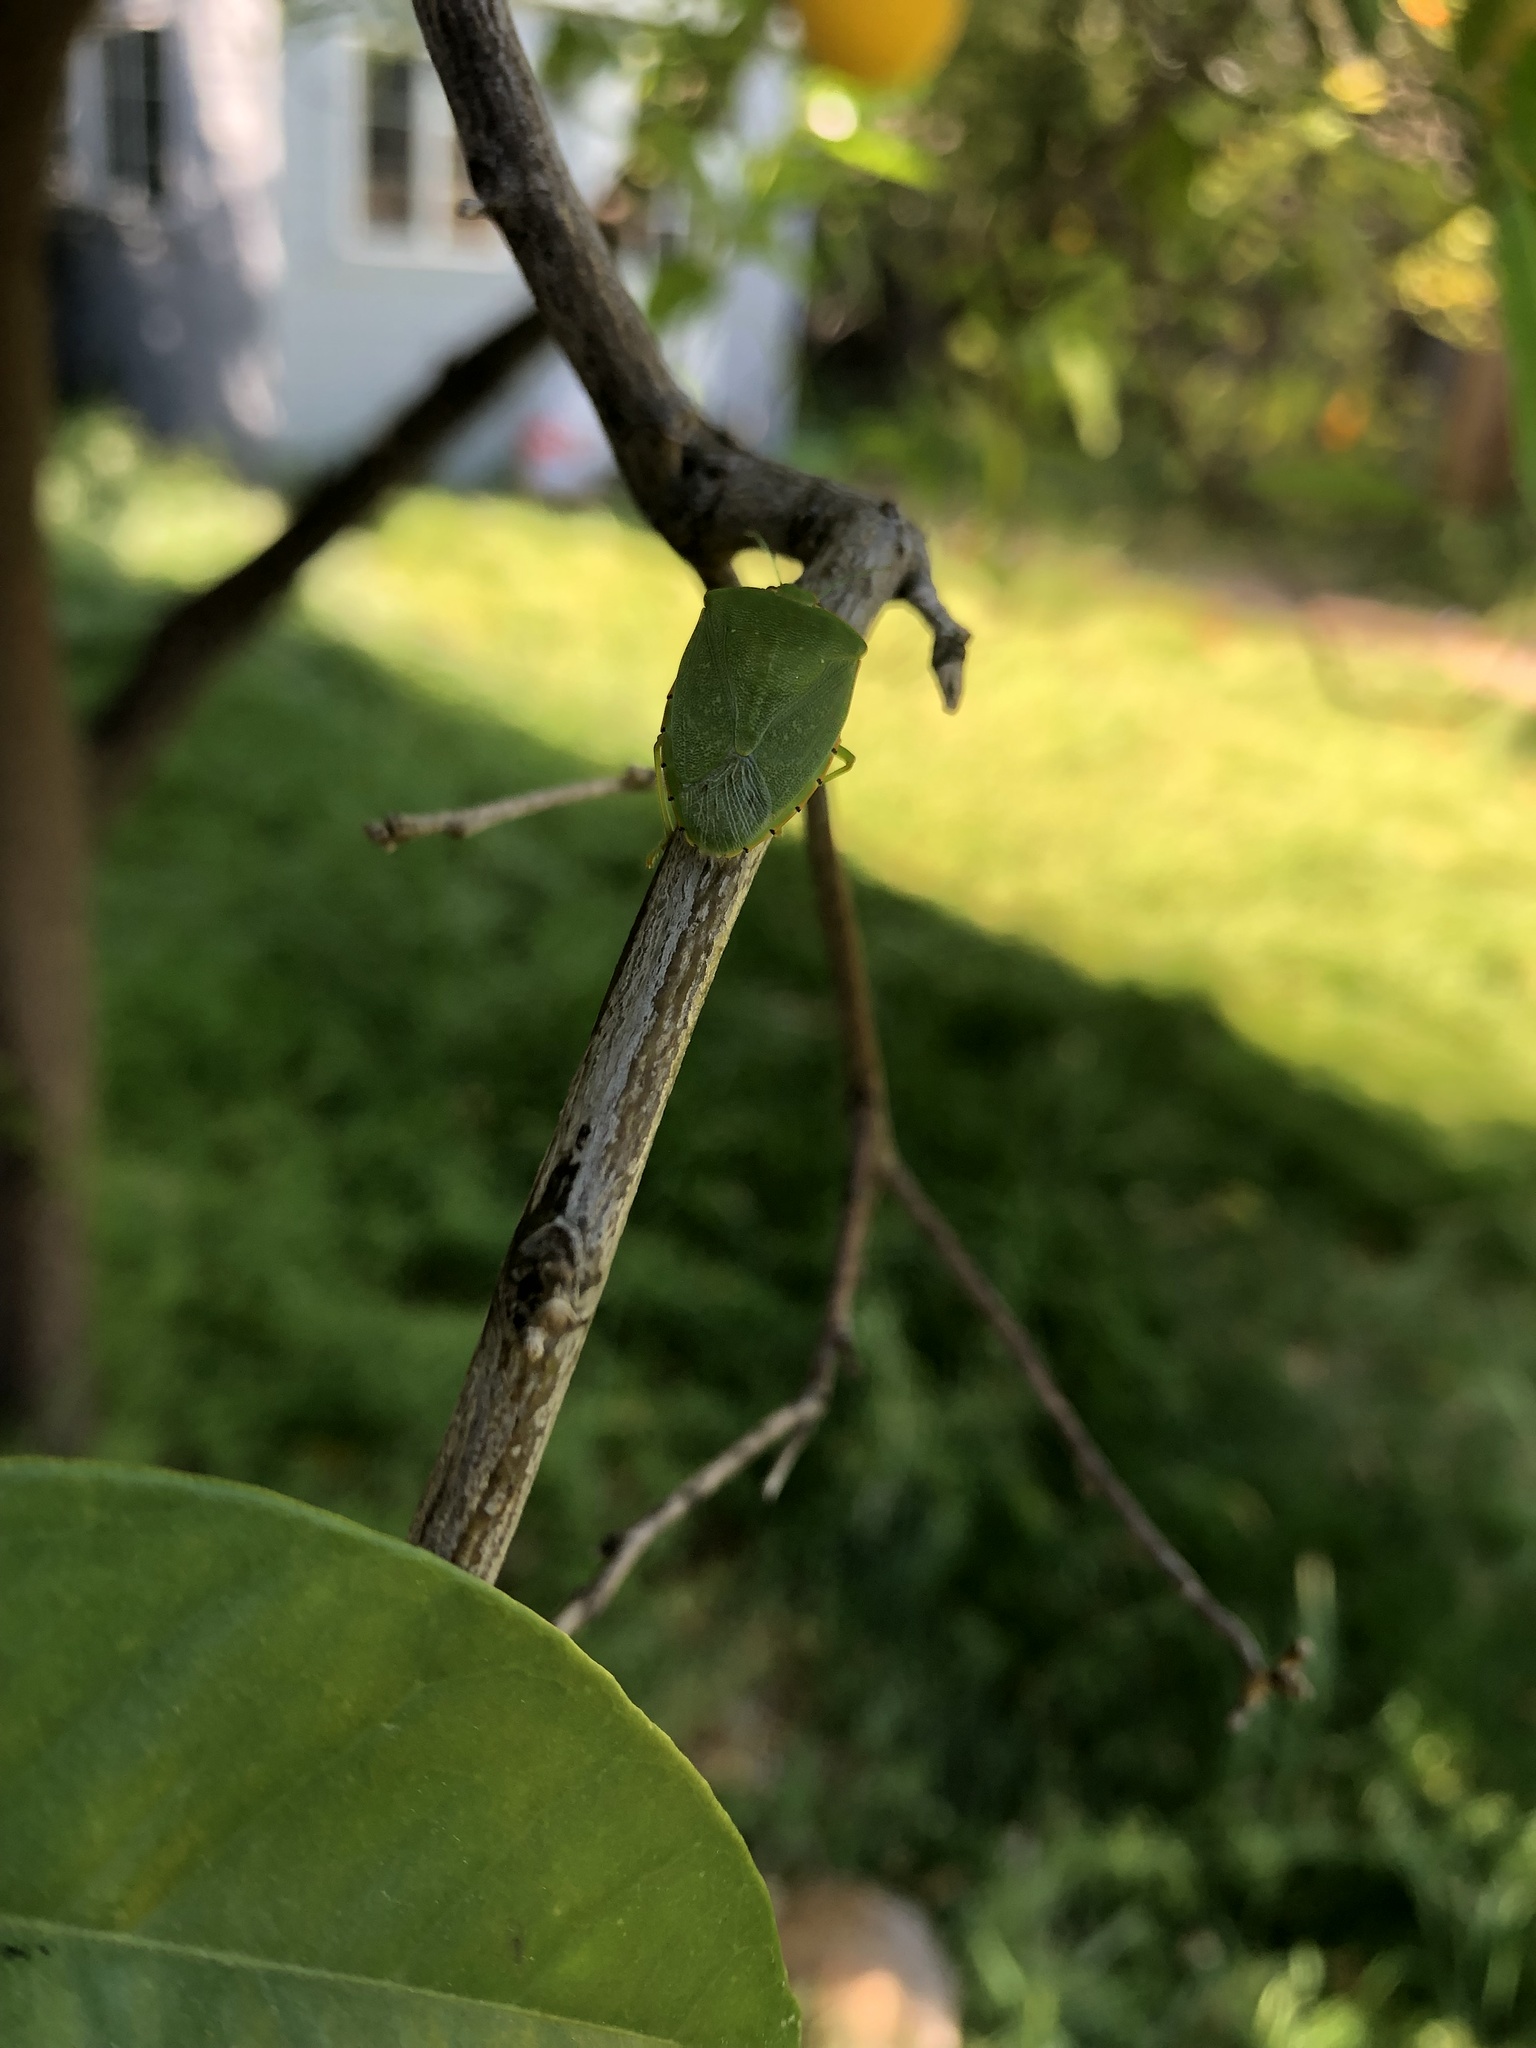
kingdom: Animalia
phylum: Arthropoda
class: Insecta
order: Hemiptera
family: Pentatomidae
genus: Chinavia
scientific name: Chinavia hilaris
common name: Green stink bug
